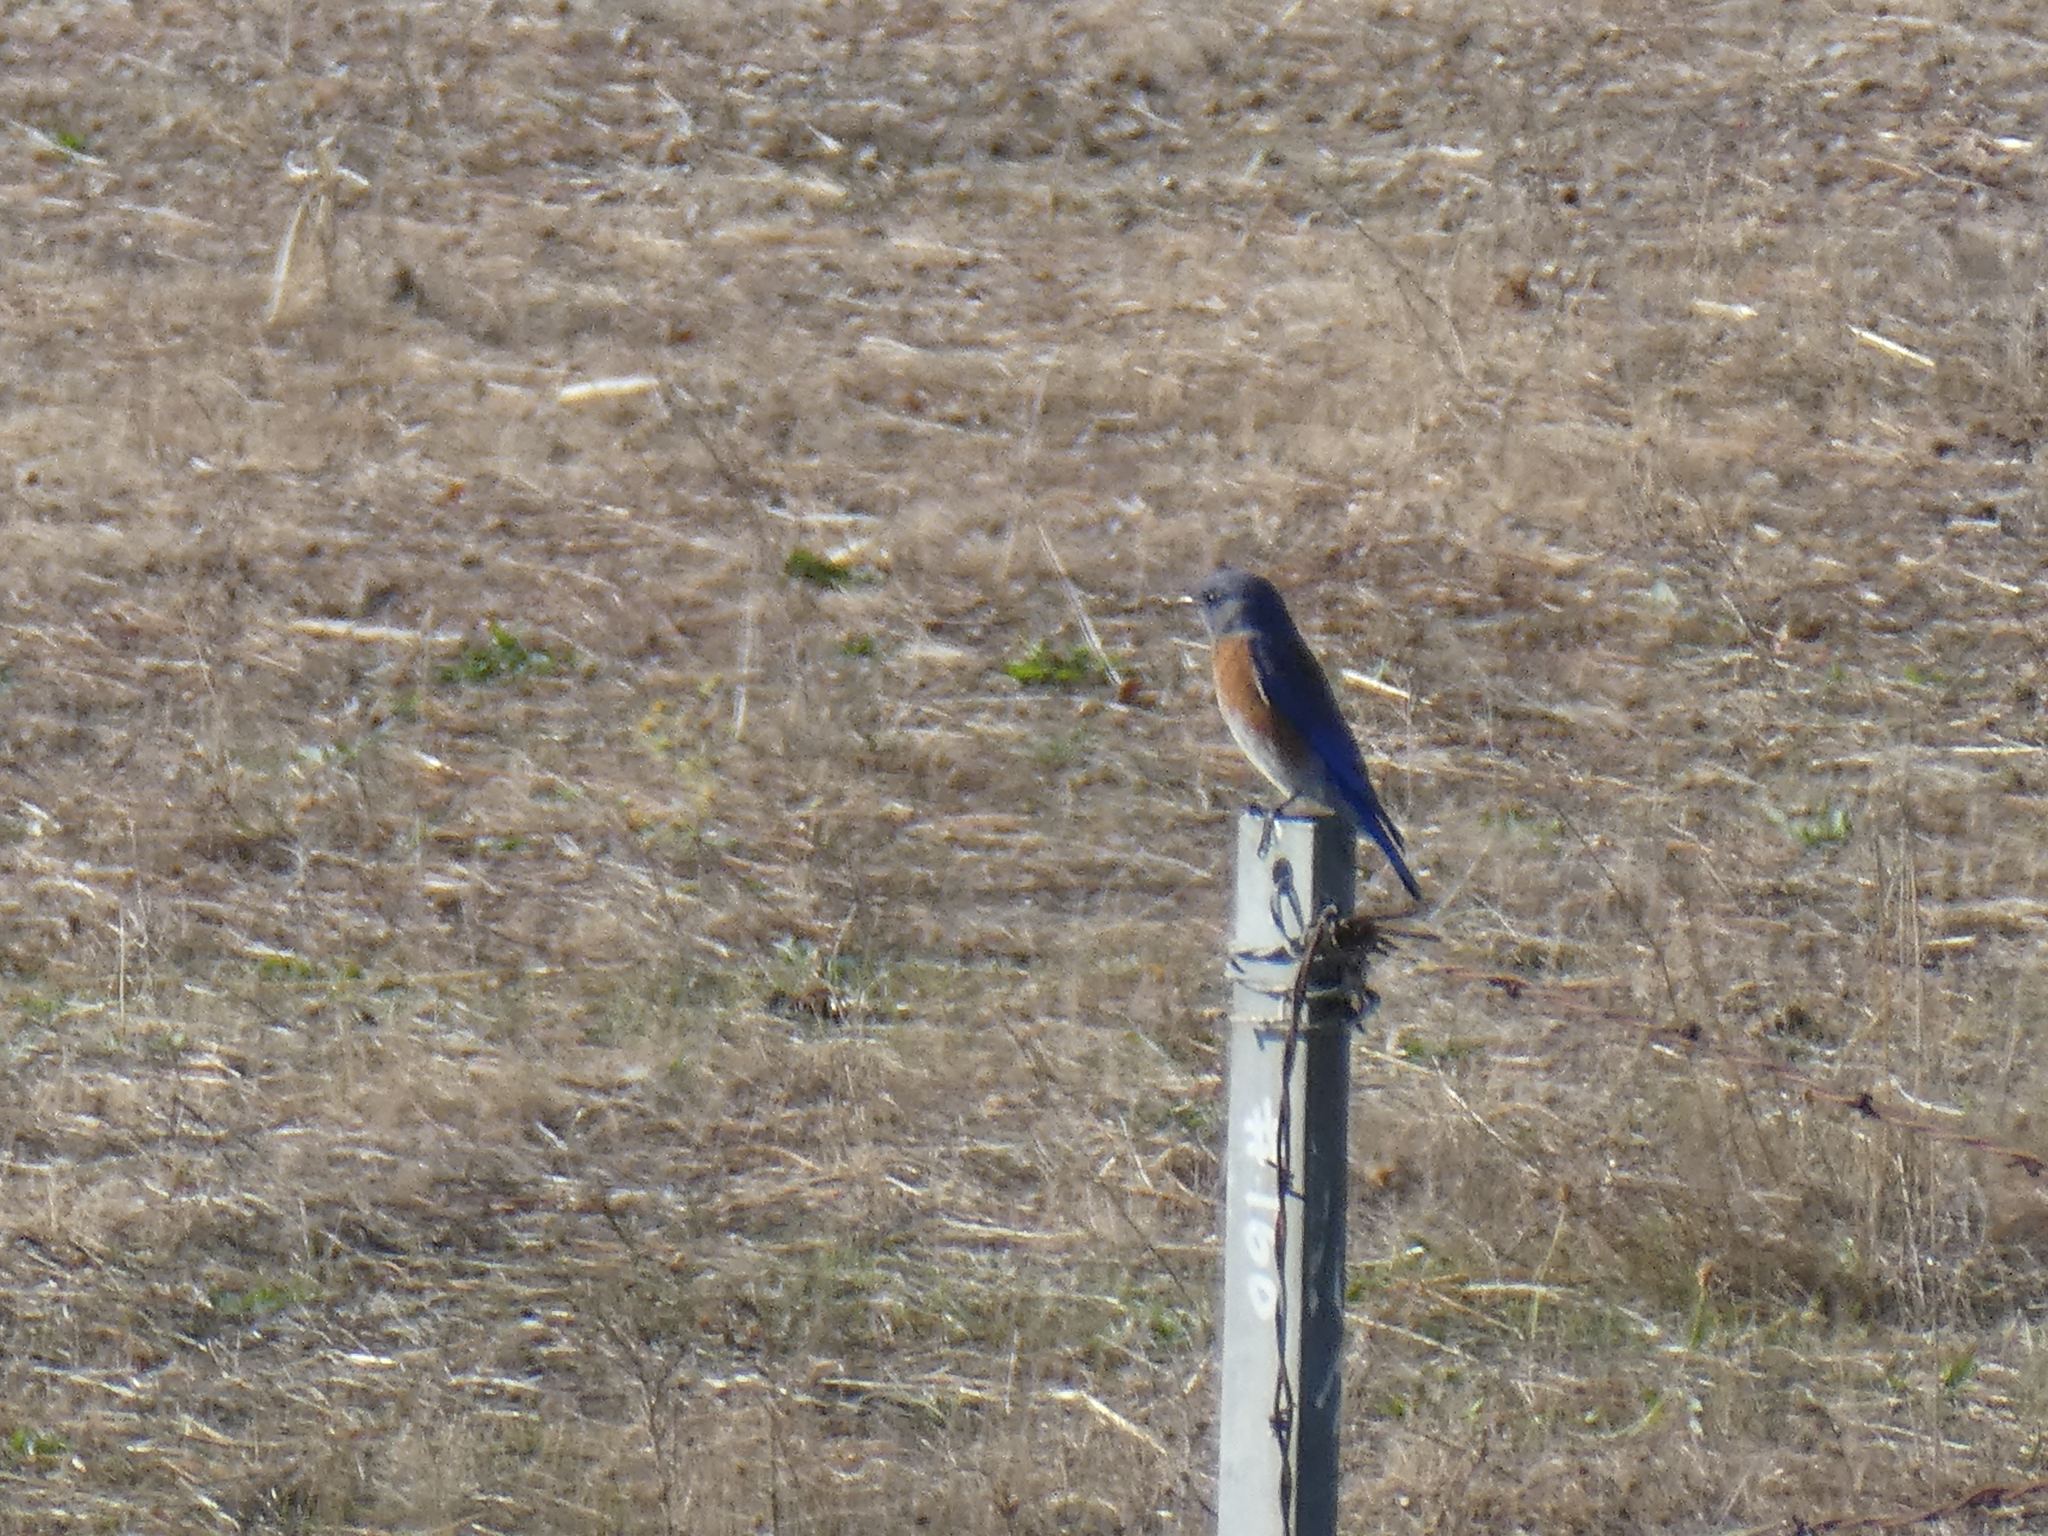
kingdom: Animalia
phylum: Chordata
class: Aves
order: Passeriformes
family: Turdidae
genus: Sialia
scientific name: Sialia mexicana
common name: Western bluebird
